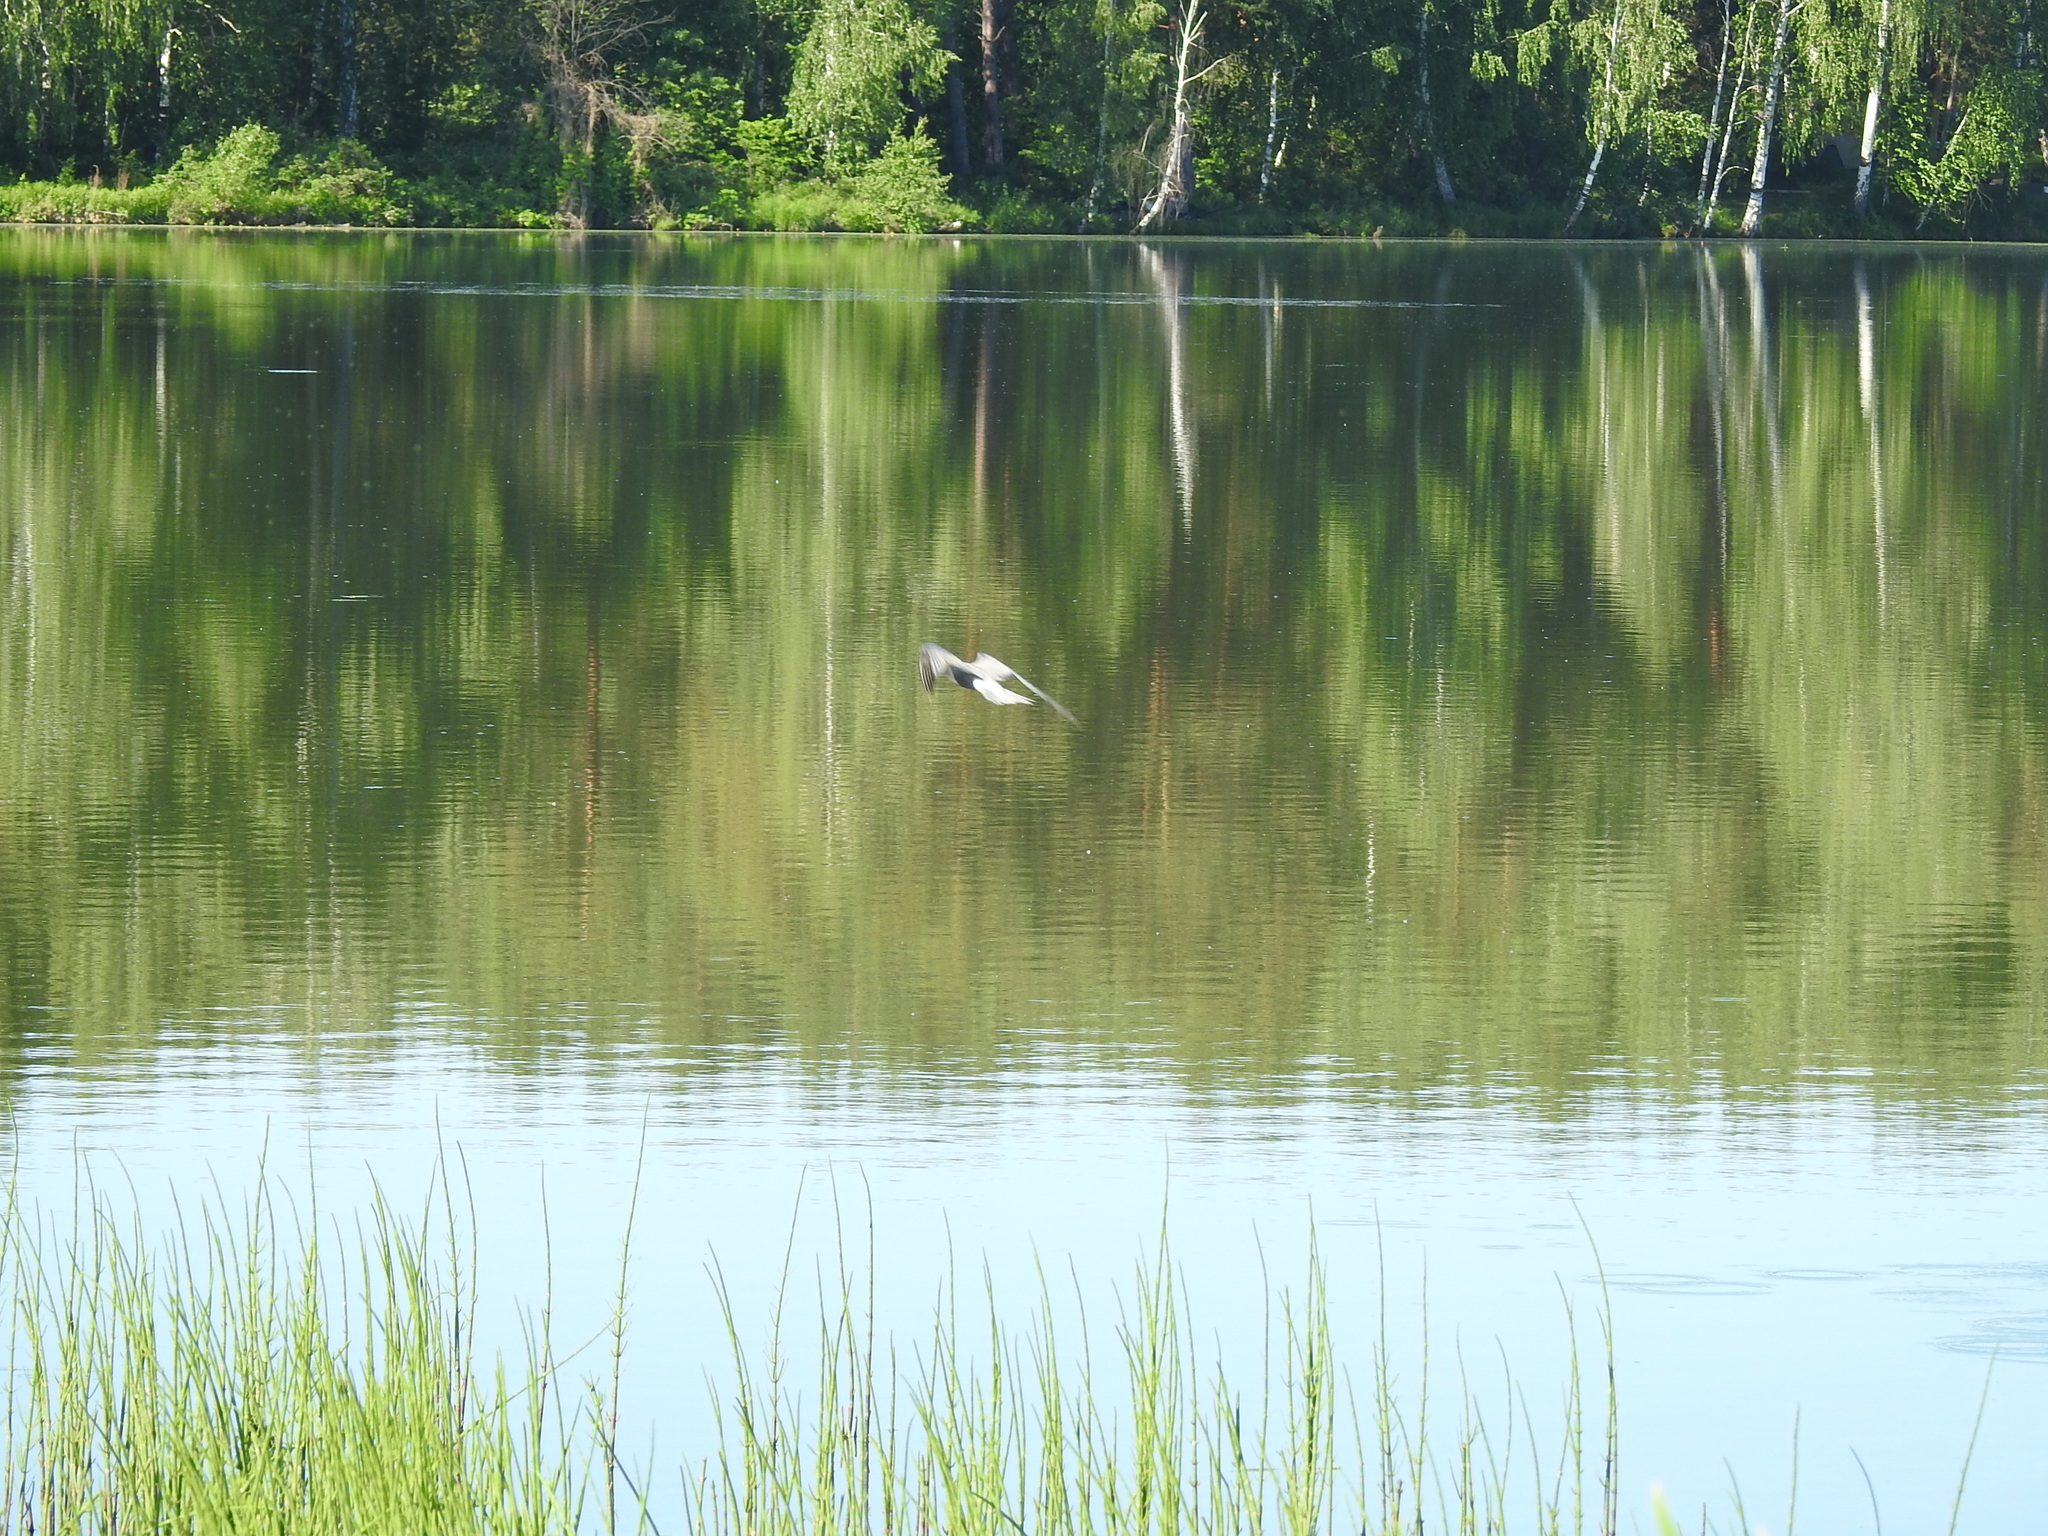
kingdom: Animalia
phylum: Chordata
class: Aves
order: Charadriiformes
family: Laridae
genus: Chlidonias
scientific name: Chlidonias niger
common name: Black tern
